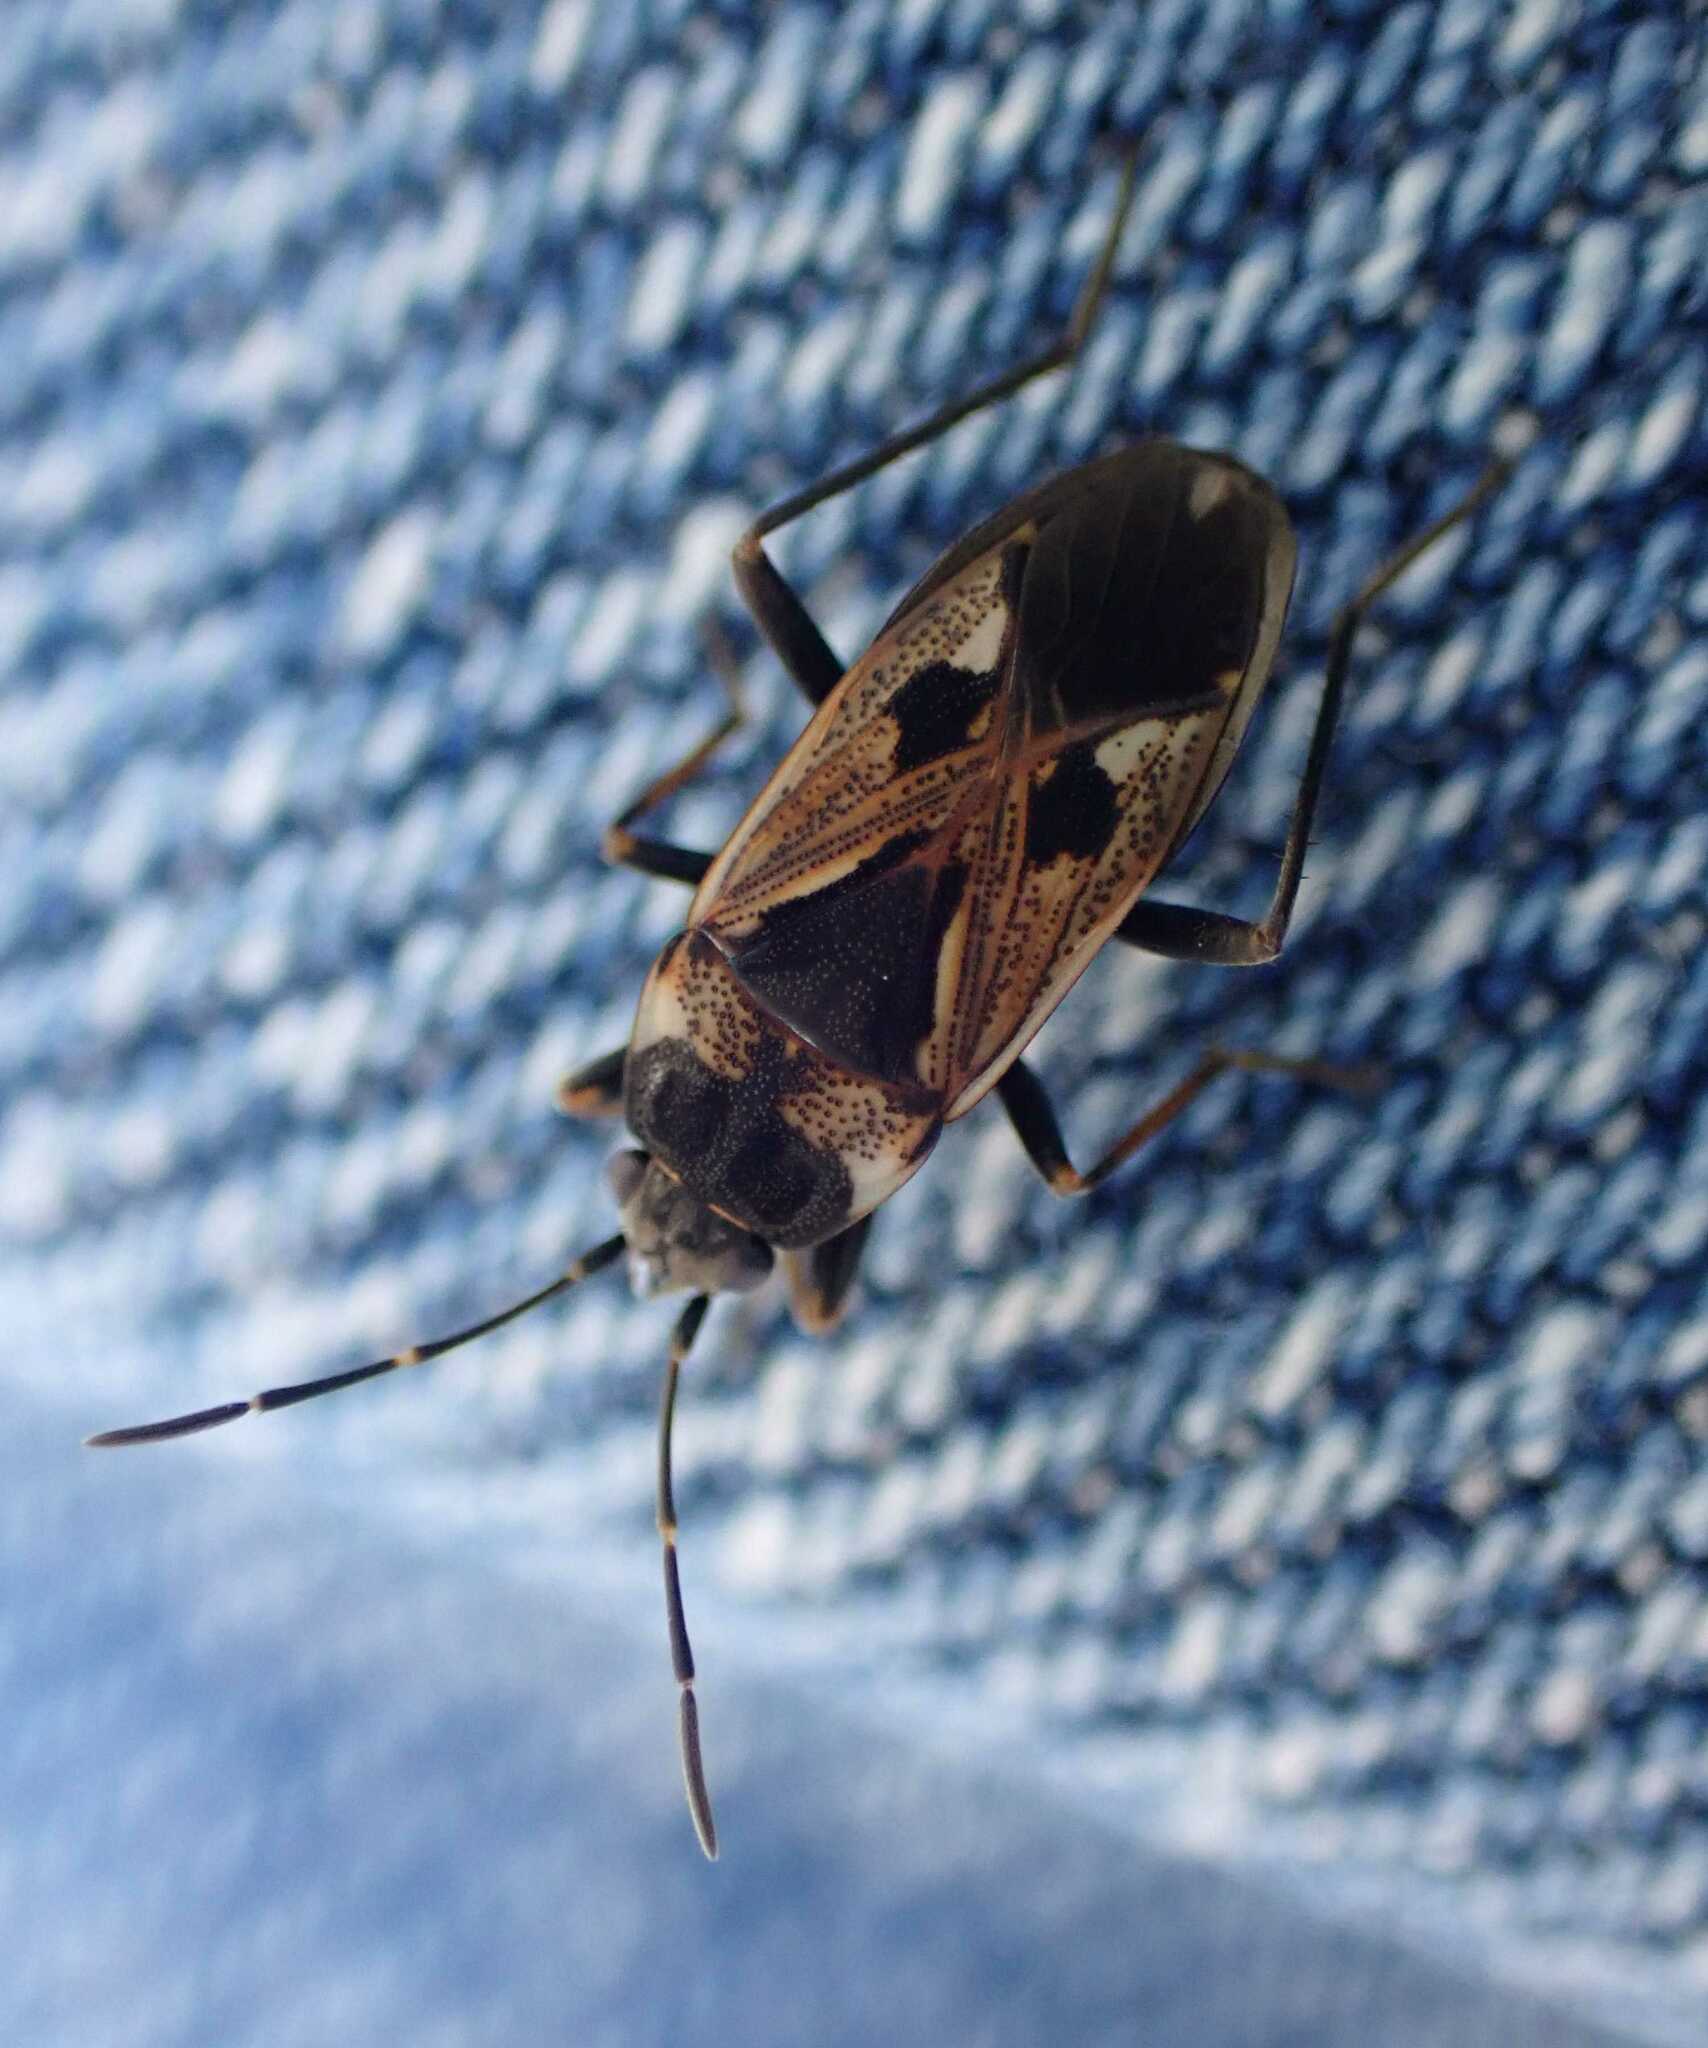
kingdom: Animalia
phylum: Arthropoda
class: Insecta
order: Hemiptera
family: Rhyparochromidae
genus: Rhyparochromus
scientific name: Rhyparochromus vulgaris
